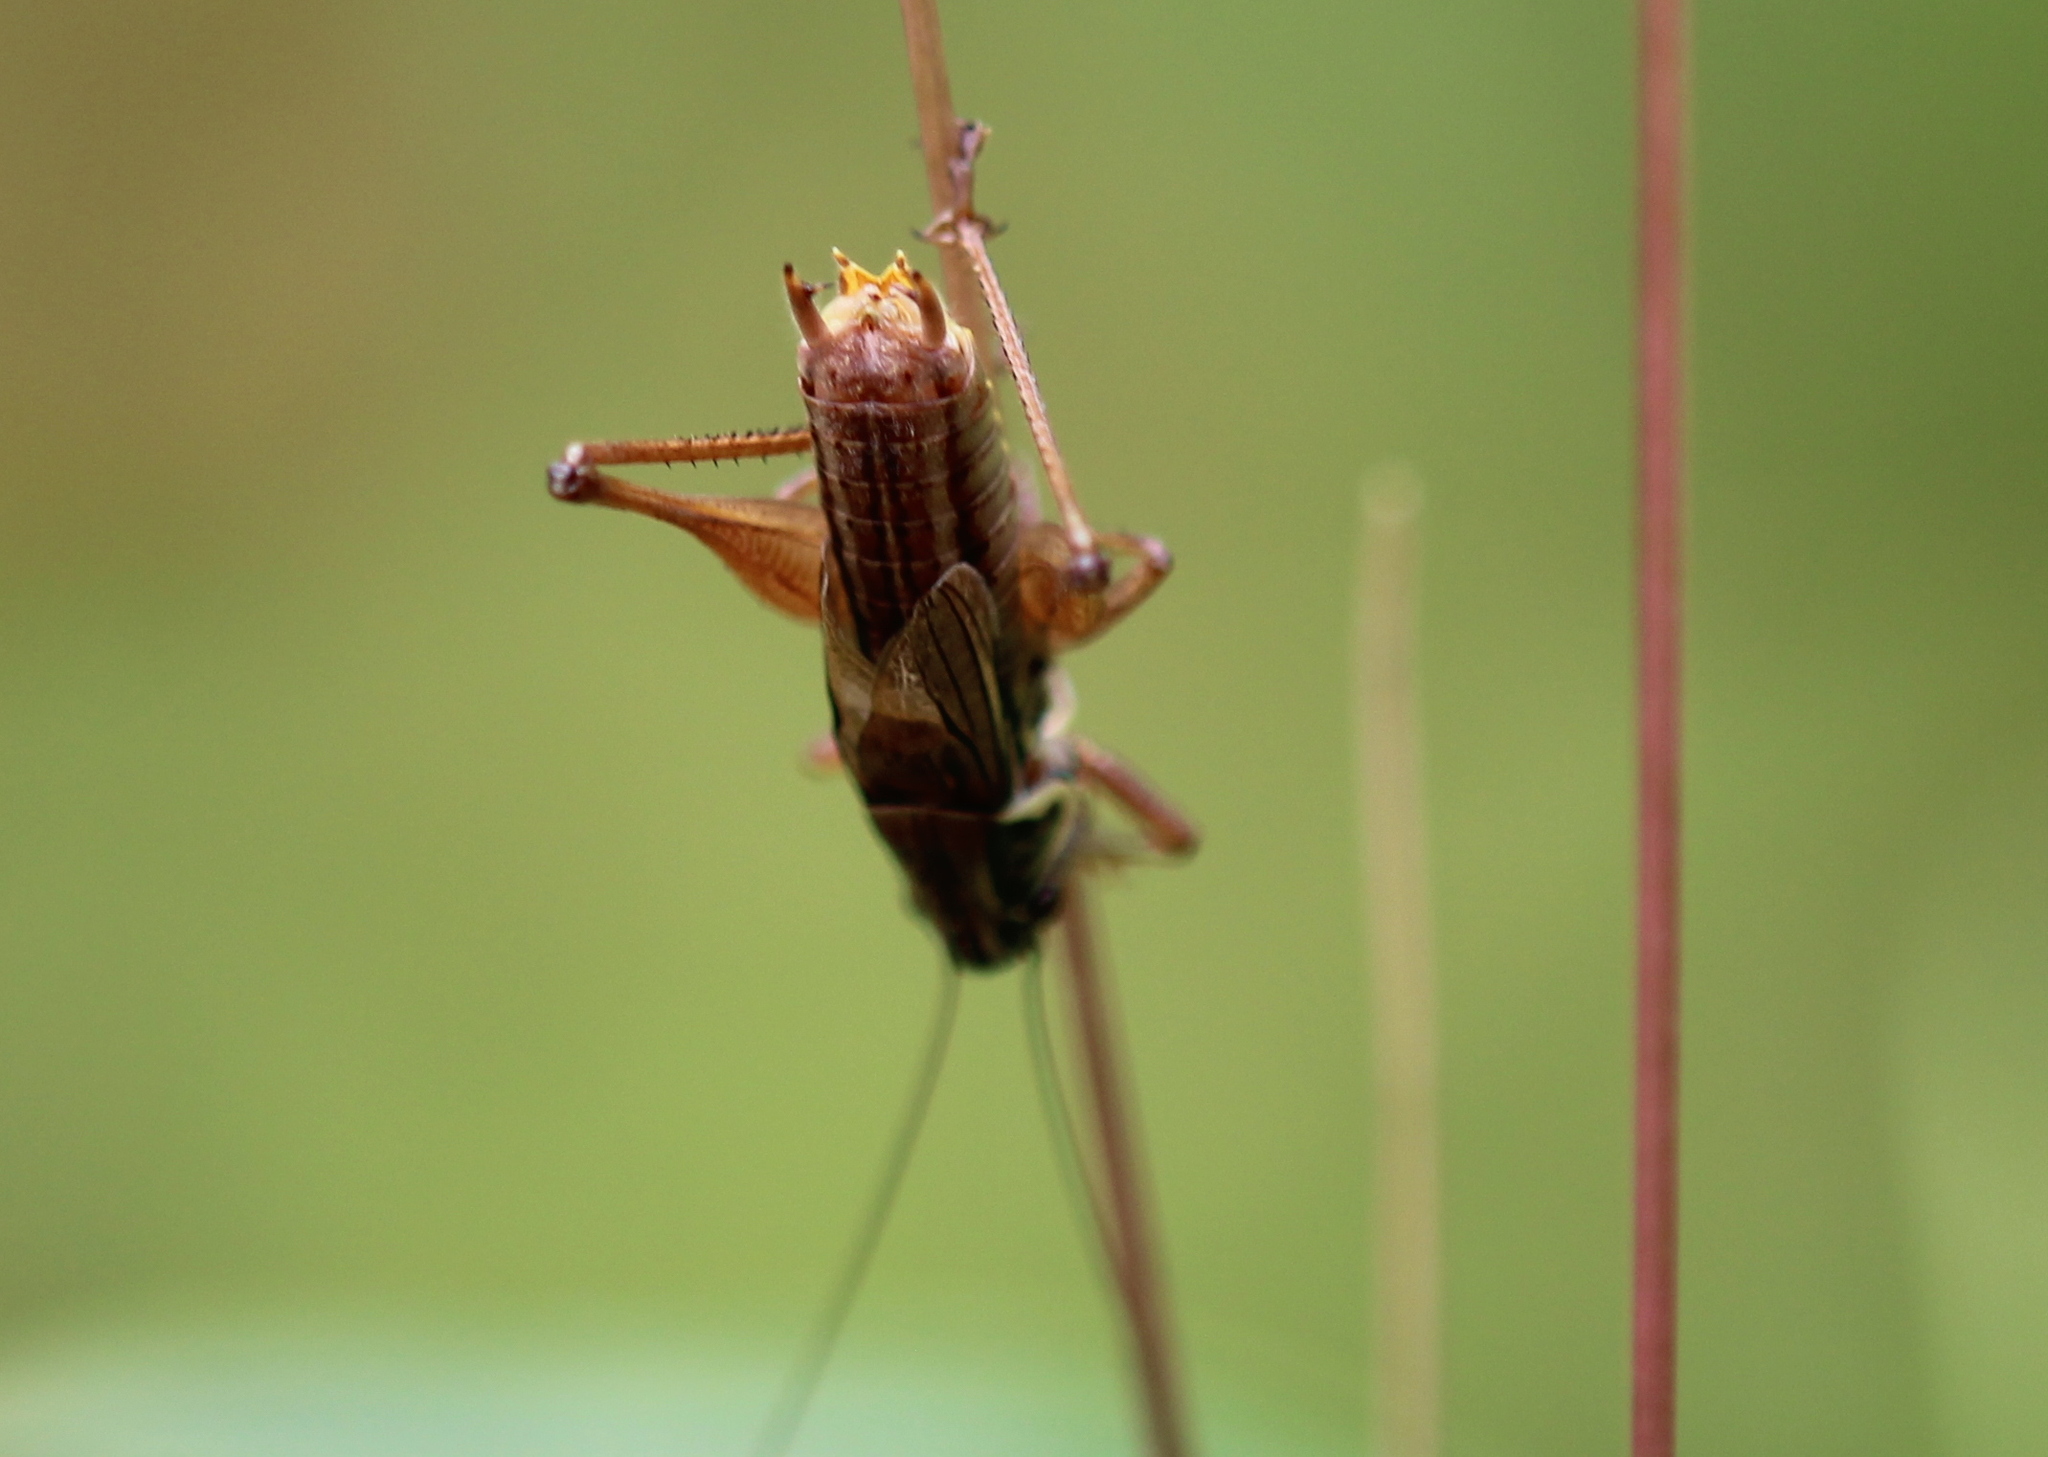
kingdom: Animalia
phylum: Arthropoda
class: Insecta
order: Orthoptera
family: Tettigoniidae
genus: Roeseliana
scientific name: Roeseliana roeselii
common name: Roesel's bush cricket
